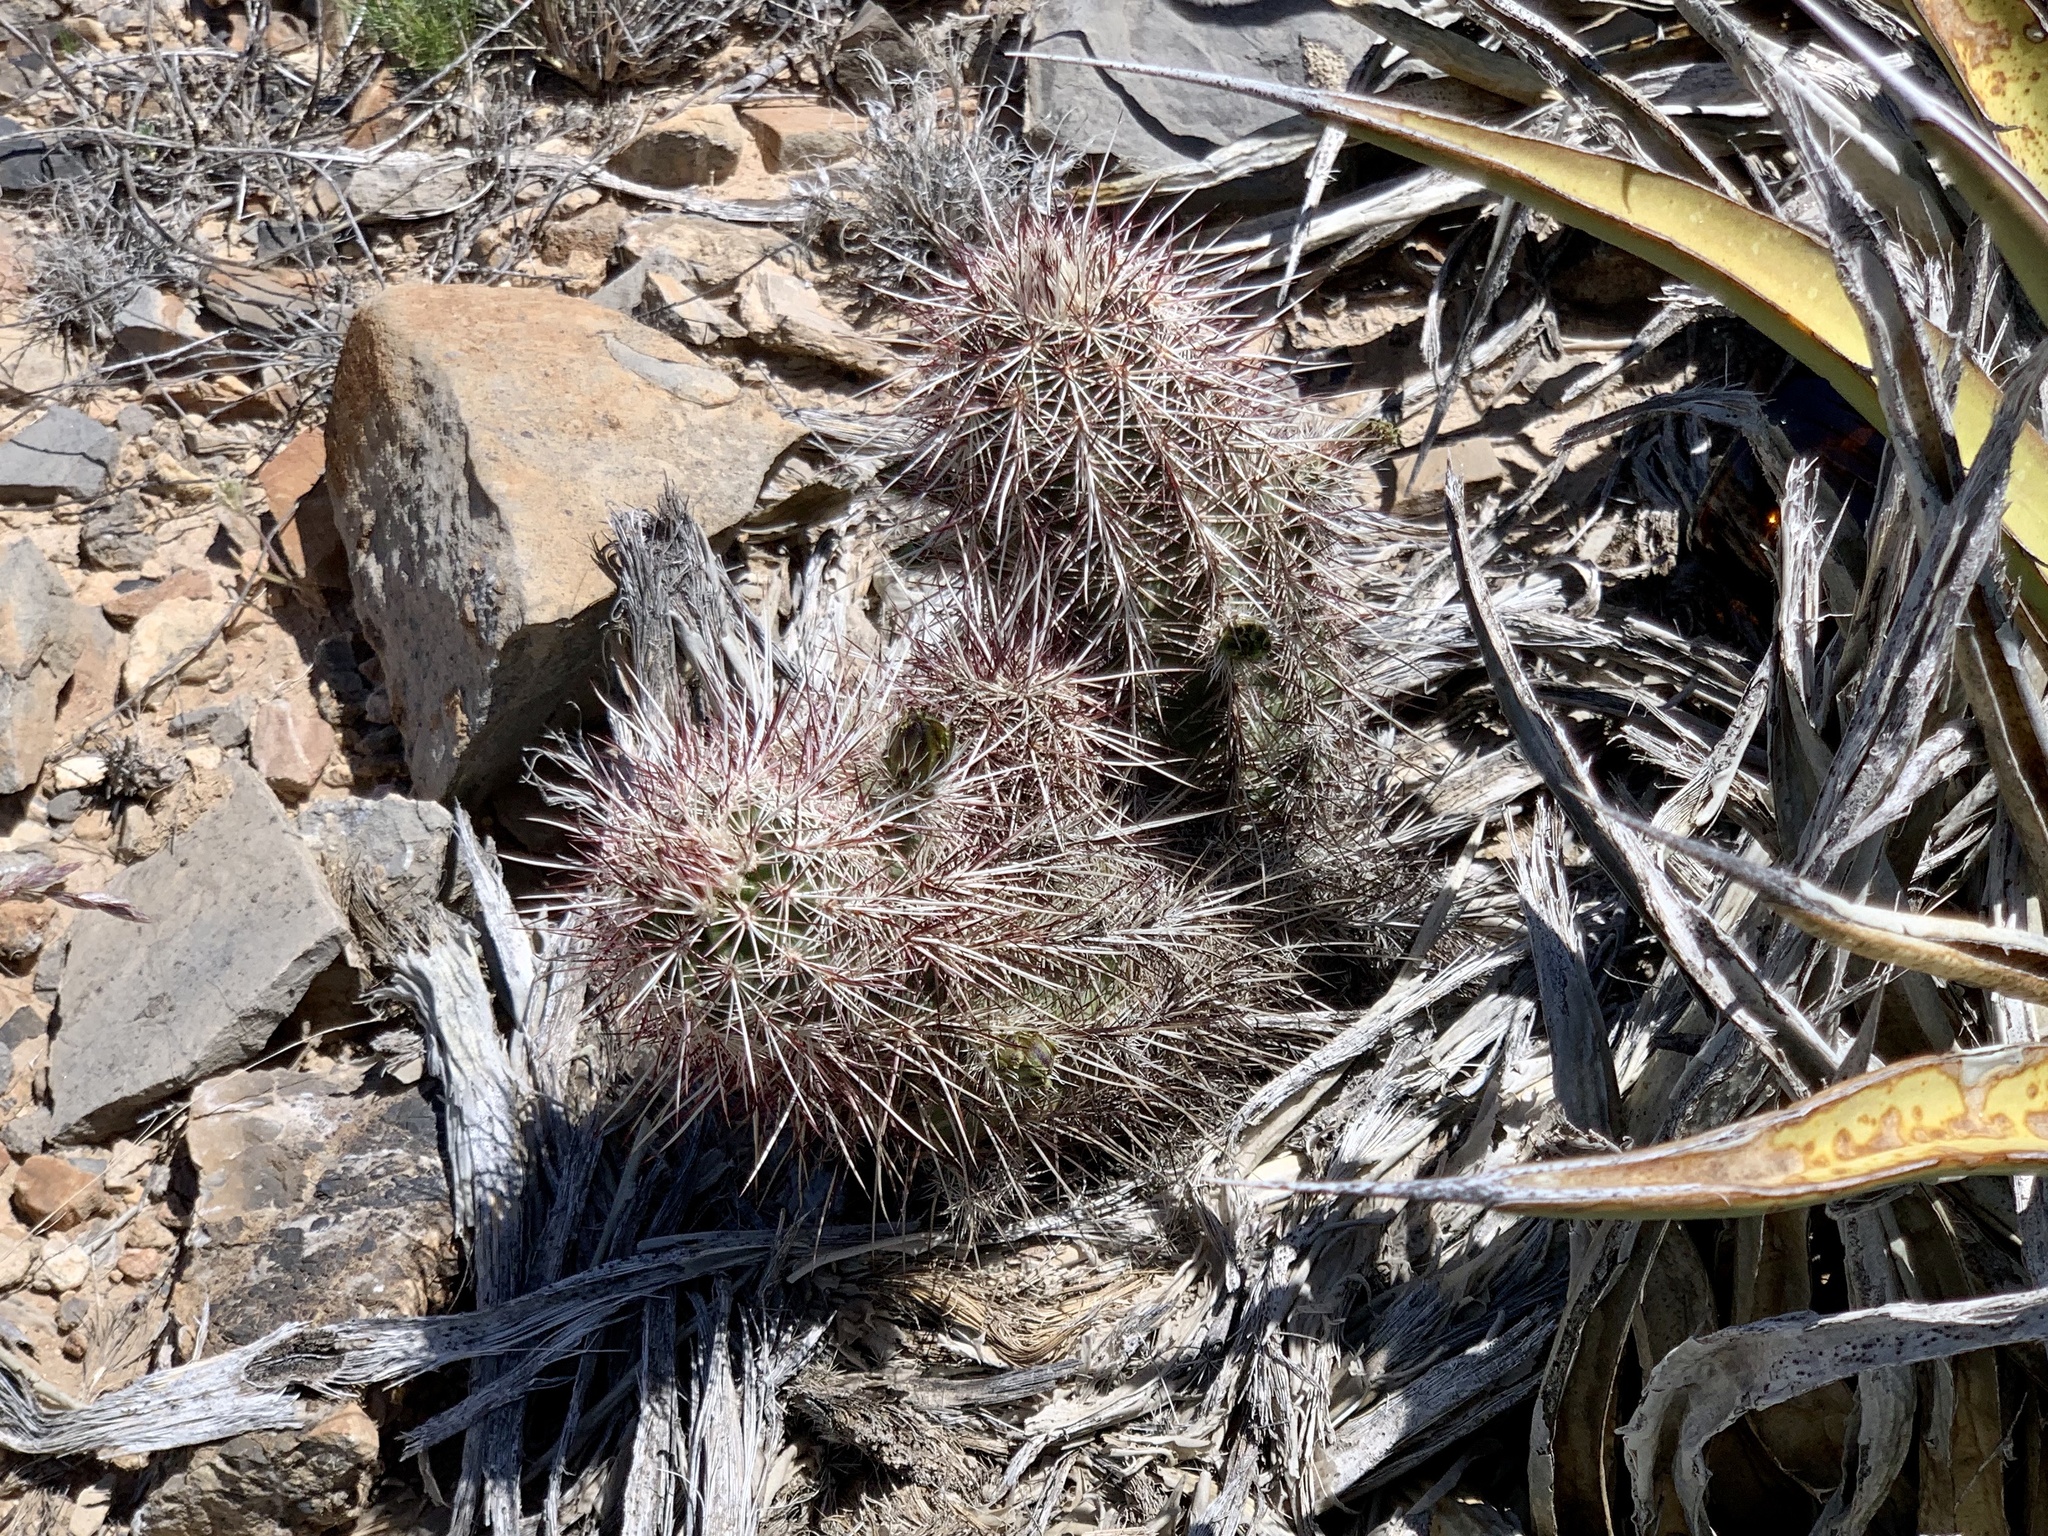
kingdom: Plantae
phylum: Tracheophyta
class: Magnoliopsida
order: Caryophyllales
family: Cactaceae
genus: Echinocereus
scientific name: Echinocereus viridiflorus
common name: Nylon hedgehog cactus
